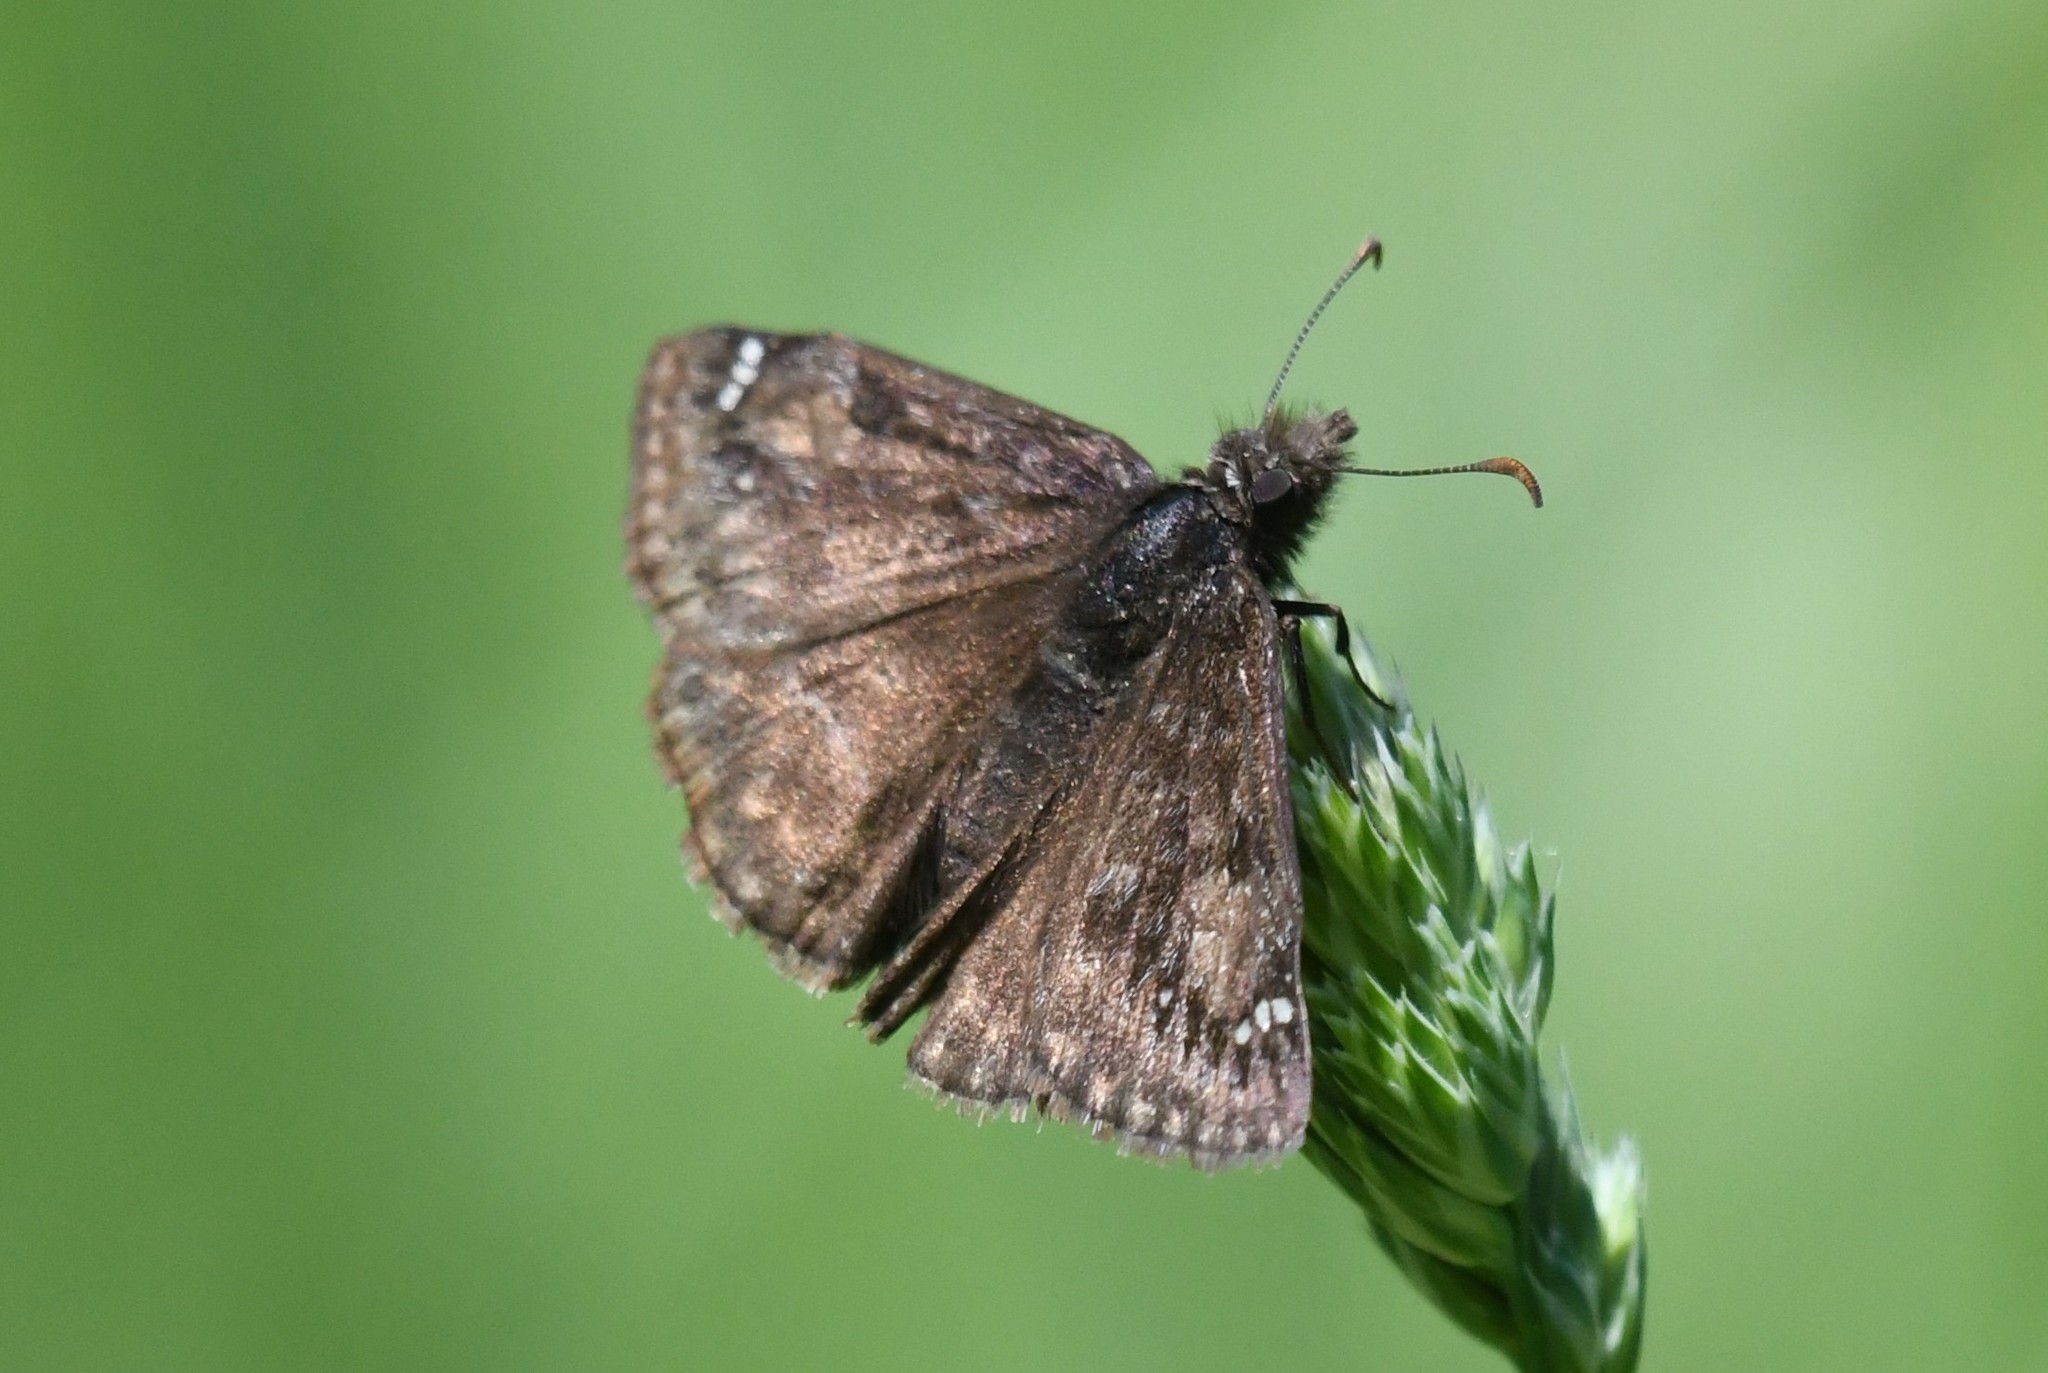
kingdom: Animalia
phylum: Arthropoda
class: Insecta
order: Lepidoptera
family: Hesperiidae
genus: Erynnis
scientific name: Erynnis juvenalis
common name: Juvenal's duskywing
